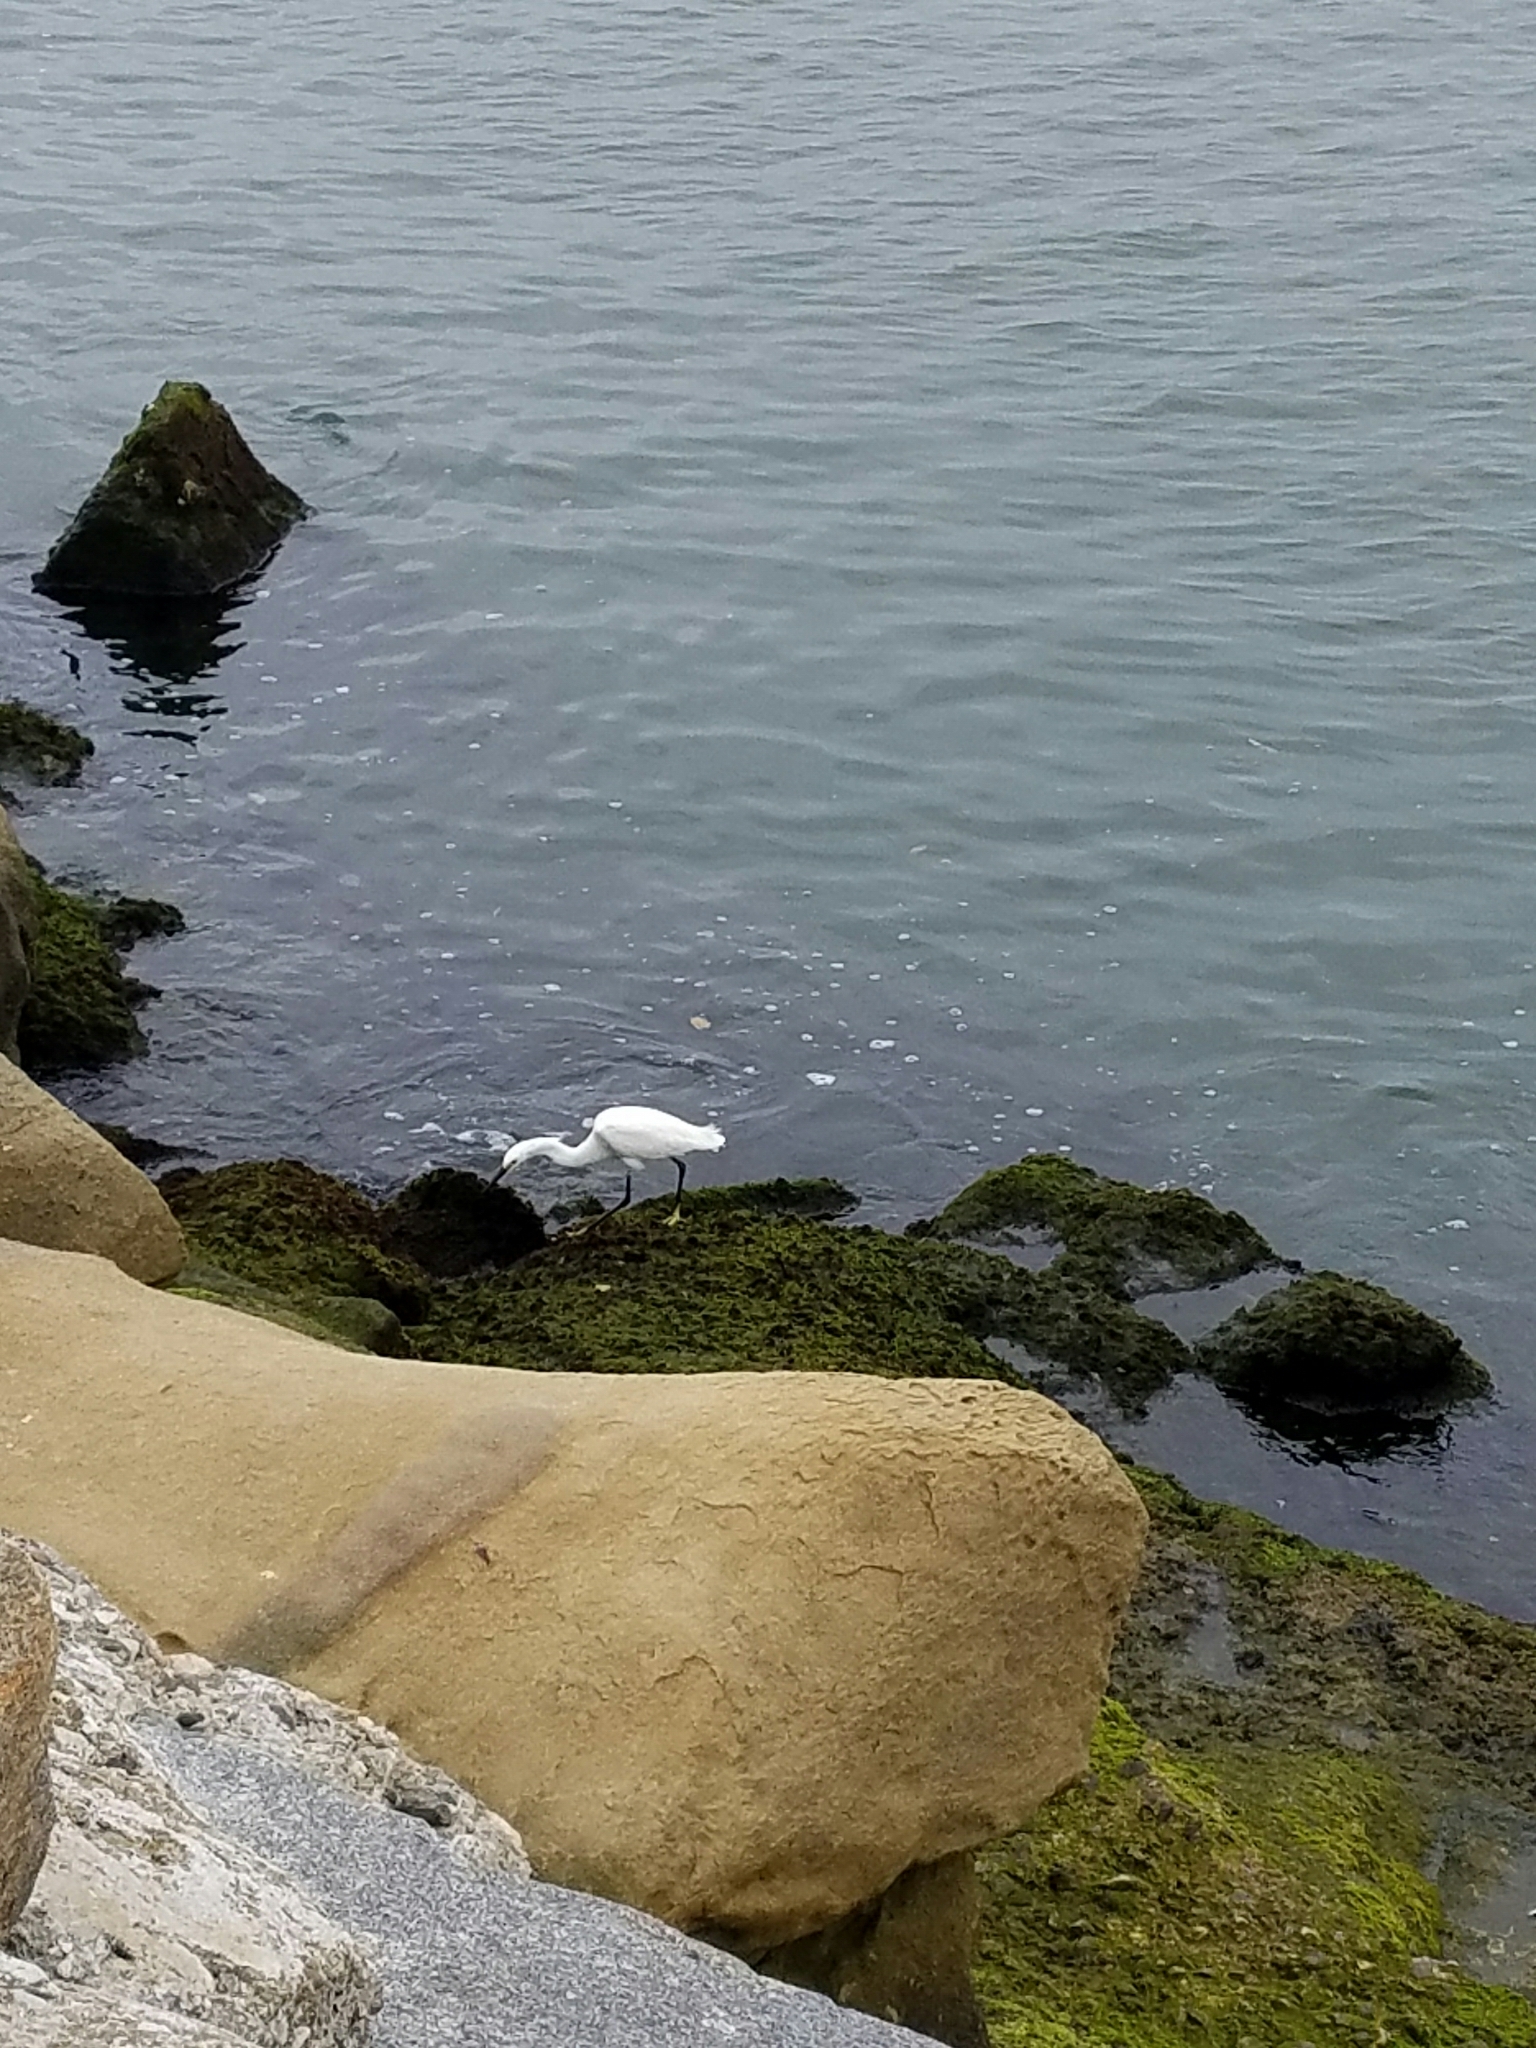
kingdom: Animalia
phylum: Chordata
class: Aves
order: Pelecaniformes
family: Ardeidae
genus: Egretta
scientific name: Egretta thula
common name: Snowy egret
